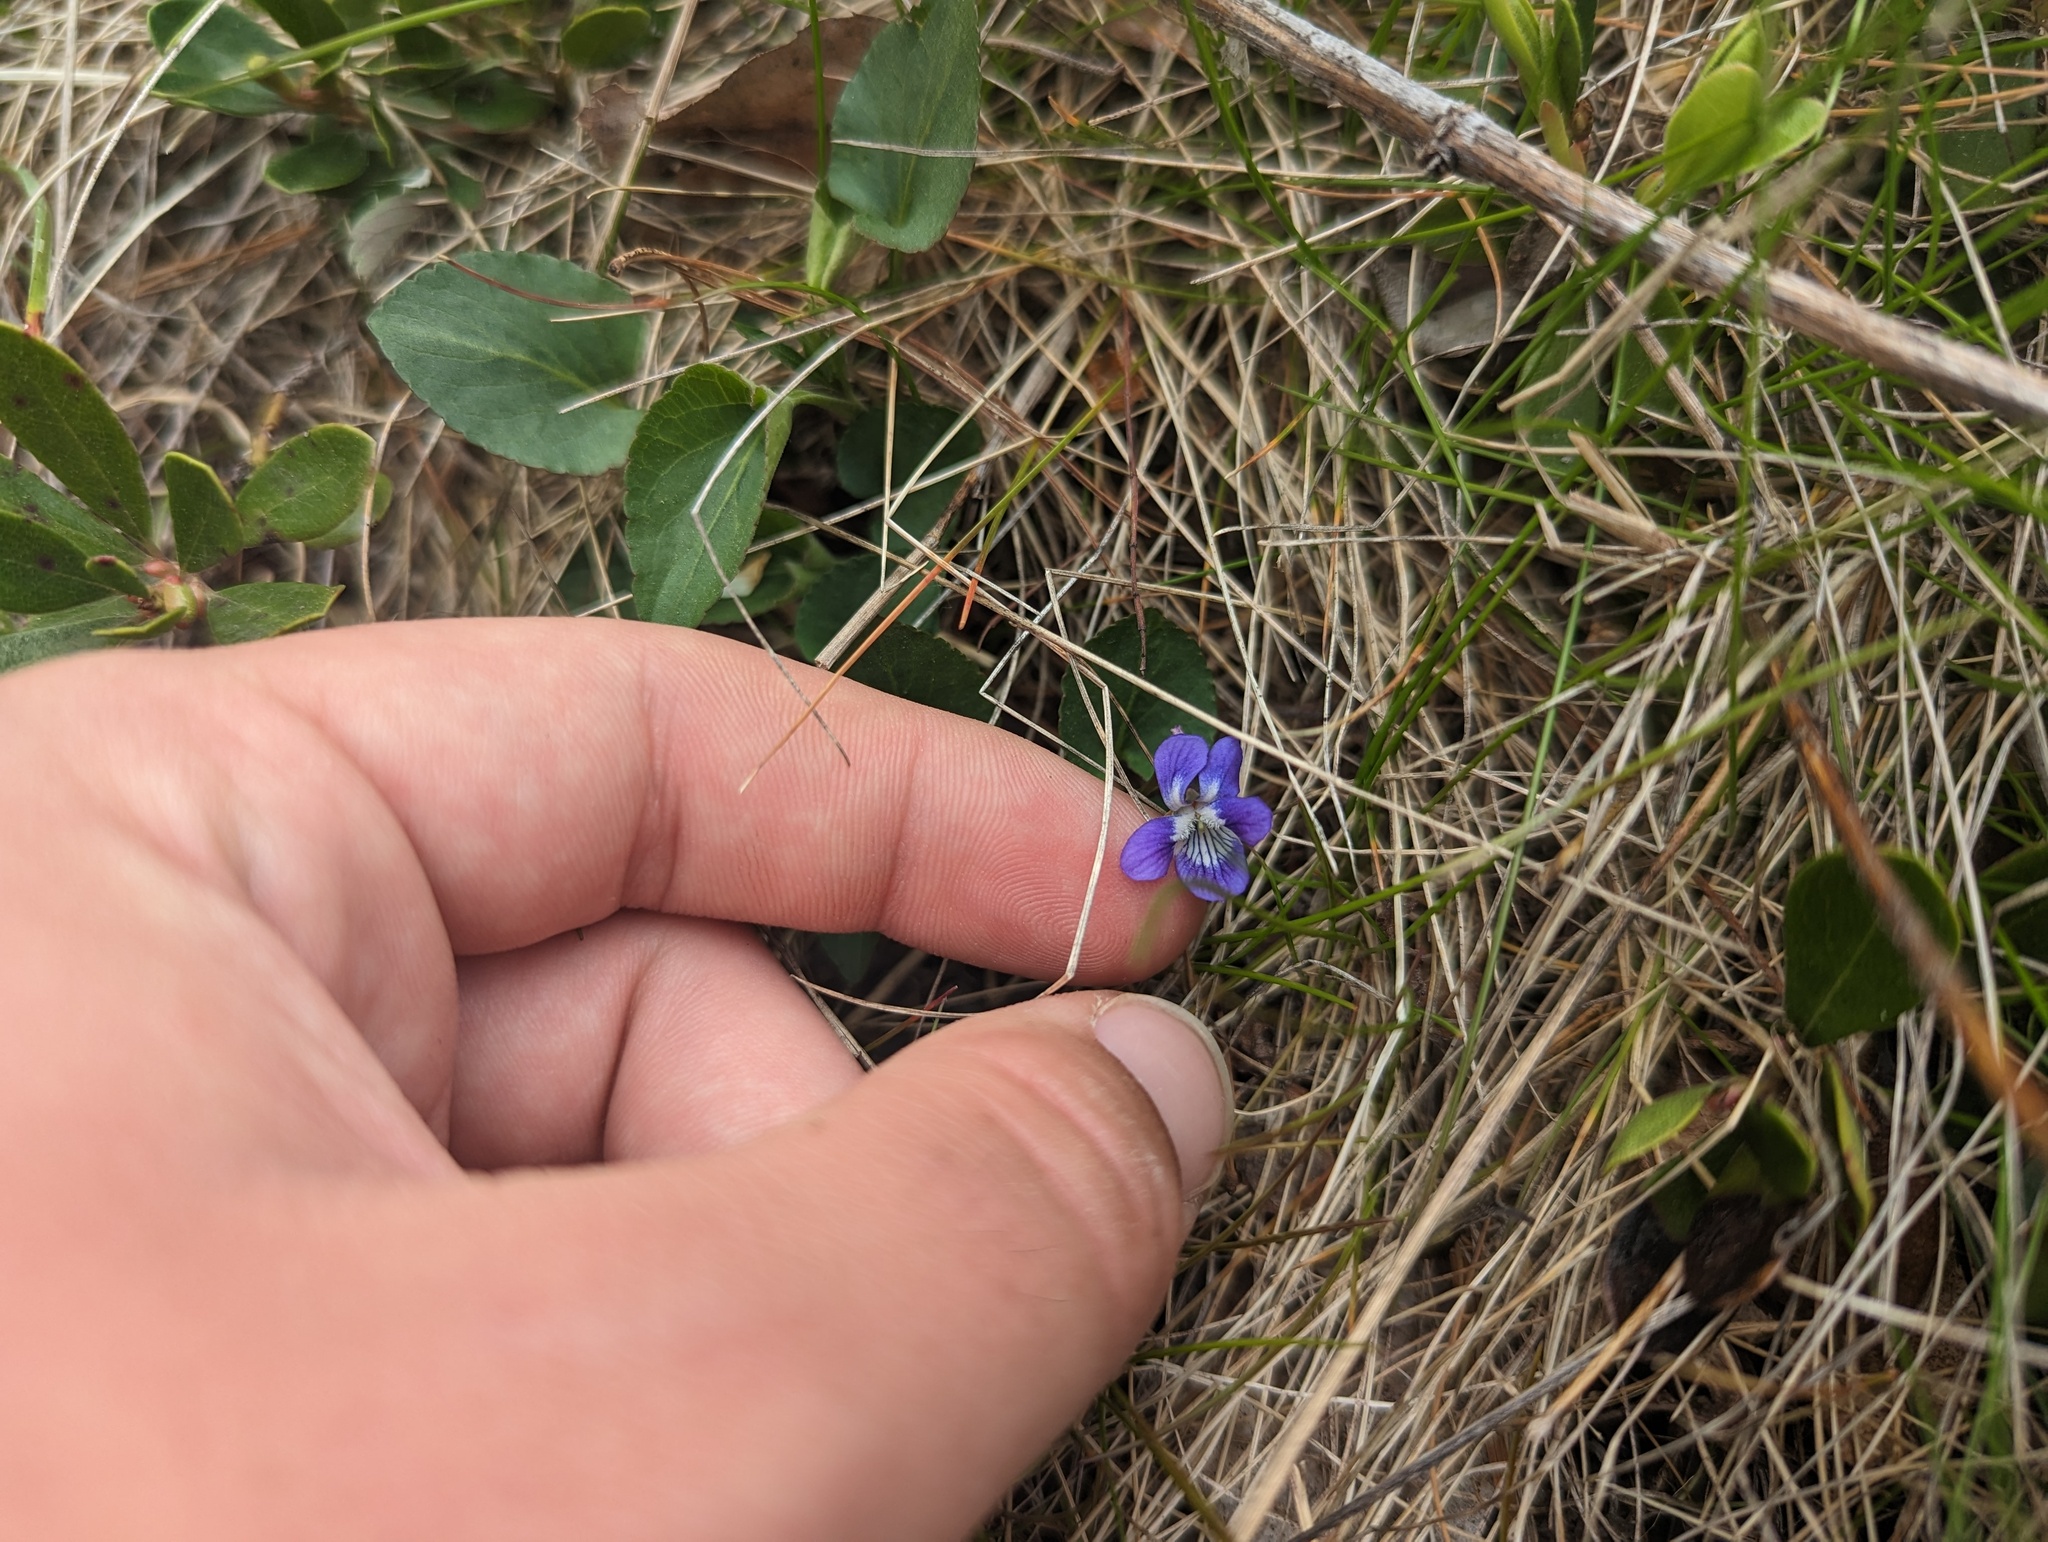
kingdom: Plantae
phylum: Tracheophyta
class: Magnoliopsida
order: Malpighiales
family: Violaceae
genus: Viola
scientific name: Viola adunca
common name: Sand violet
